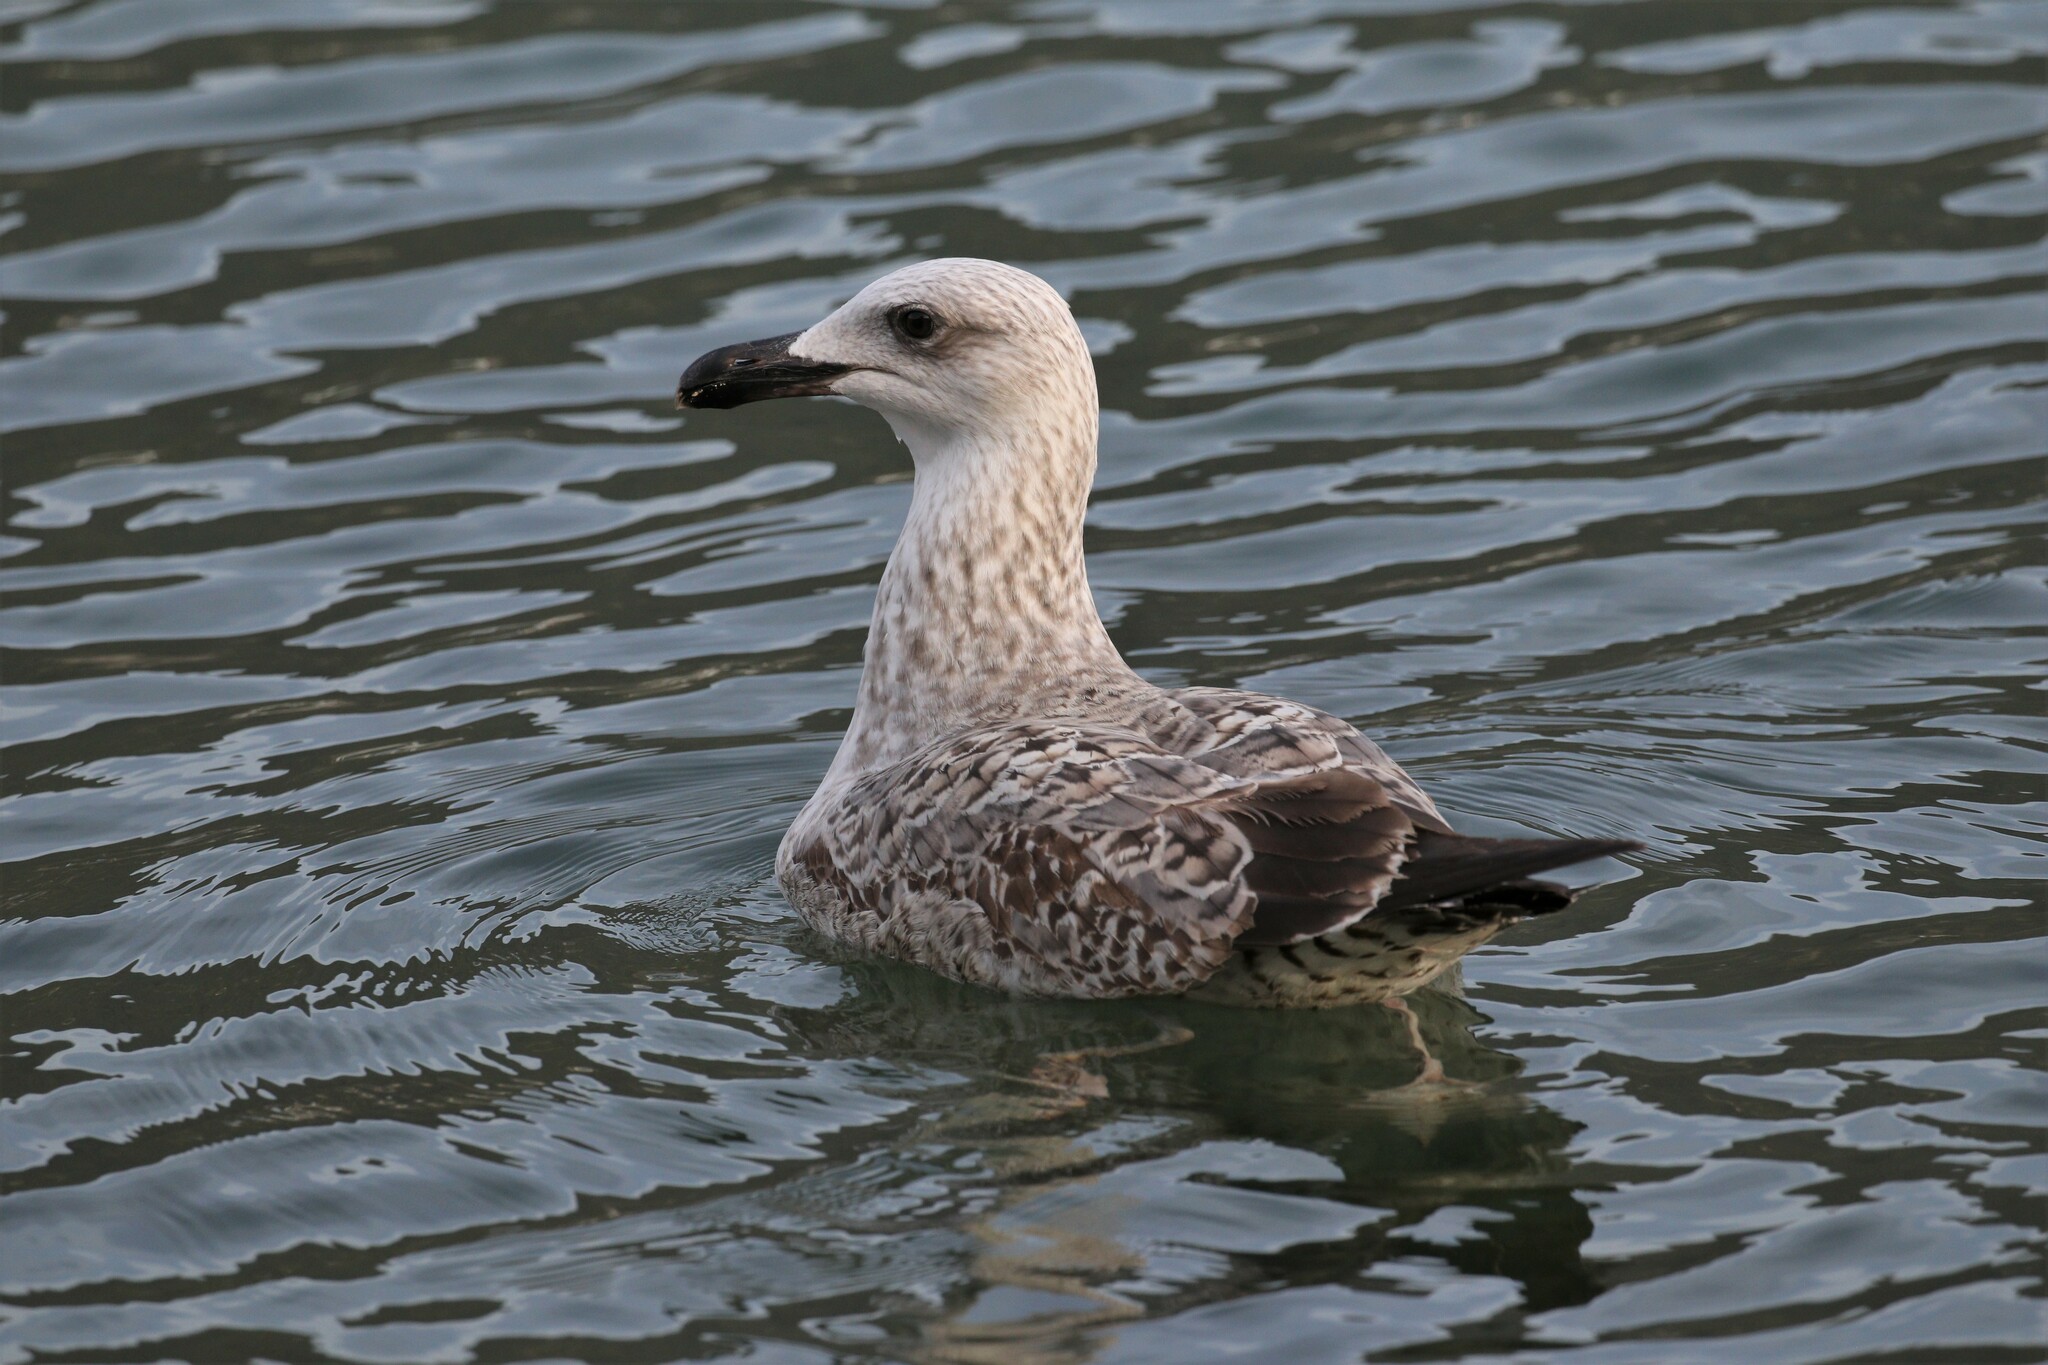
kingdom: Animalia
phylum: Chordata
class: Aves
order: Charadriiformes
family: Laridae
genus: Larus
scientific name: Larus michahellis
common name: Yellow-legged gull
